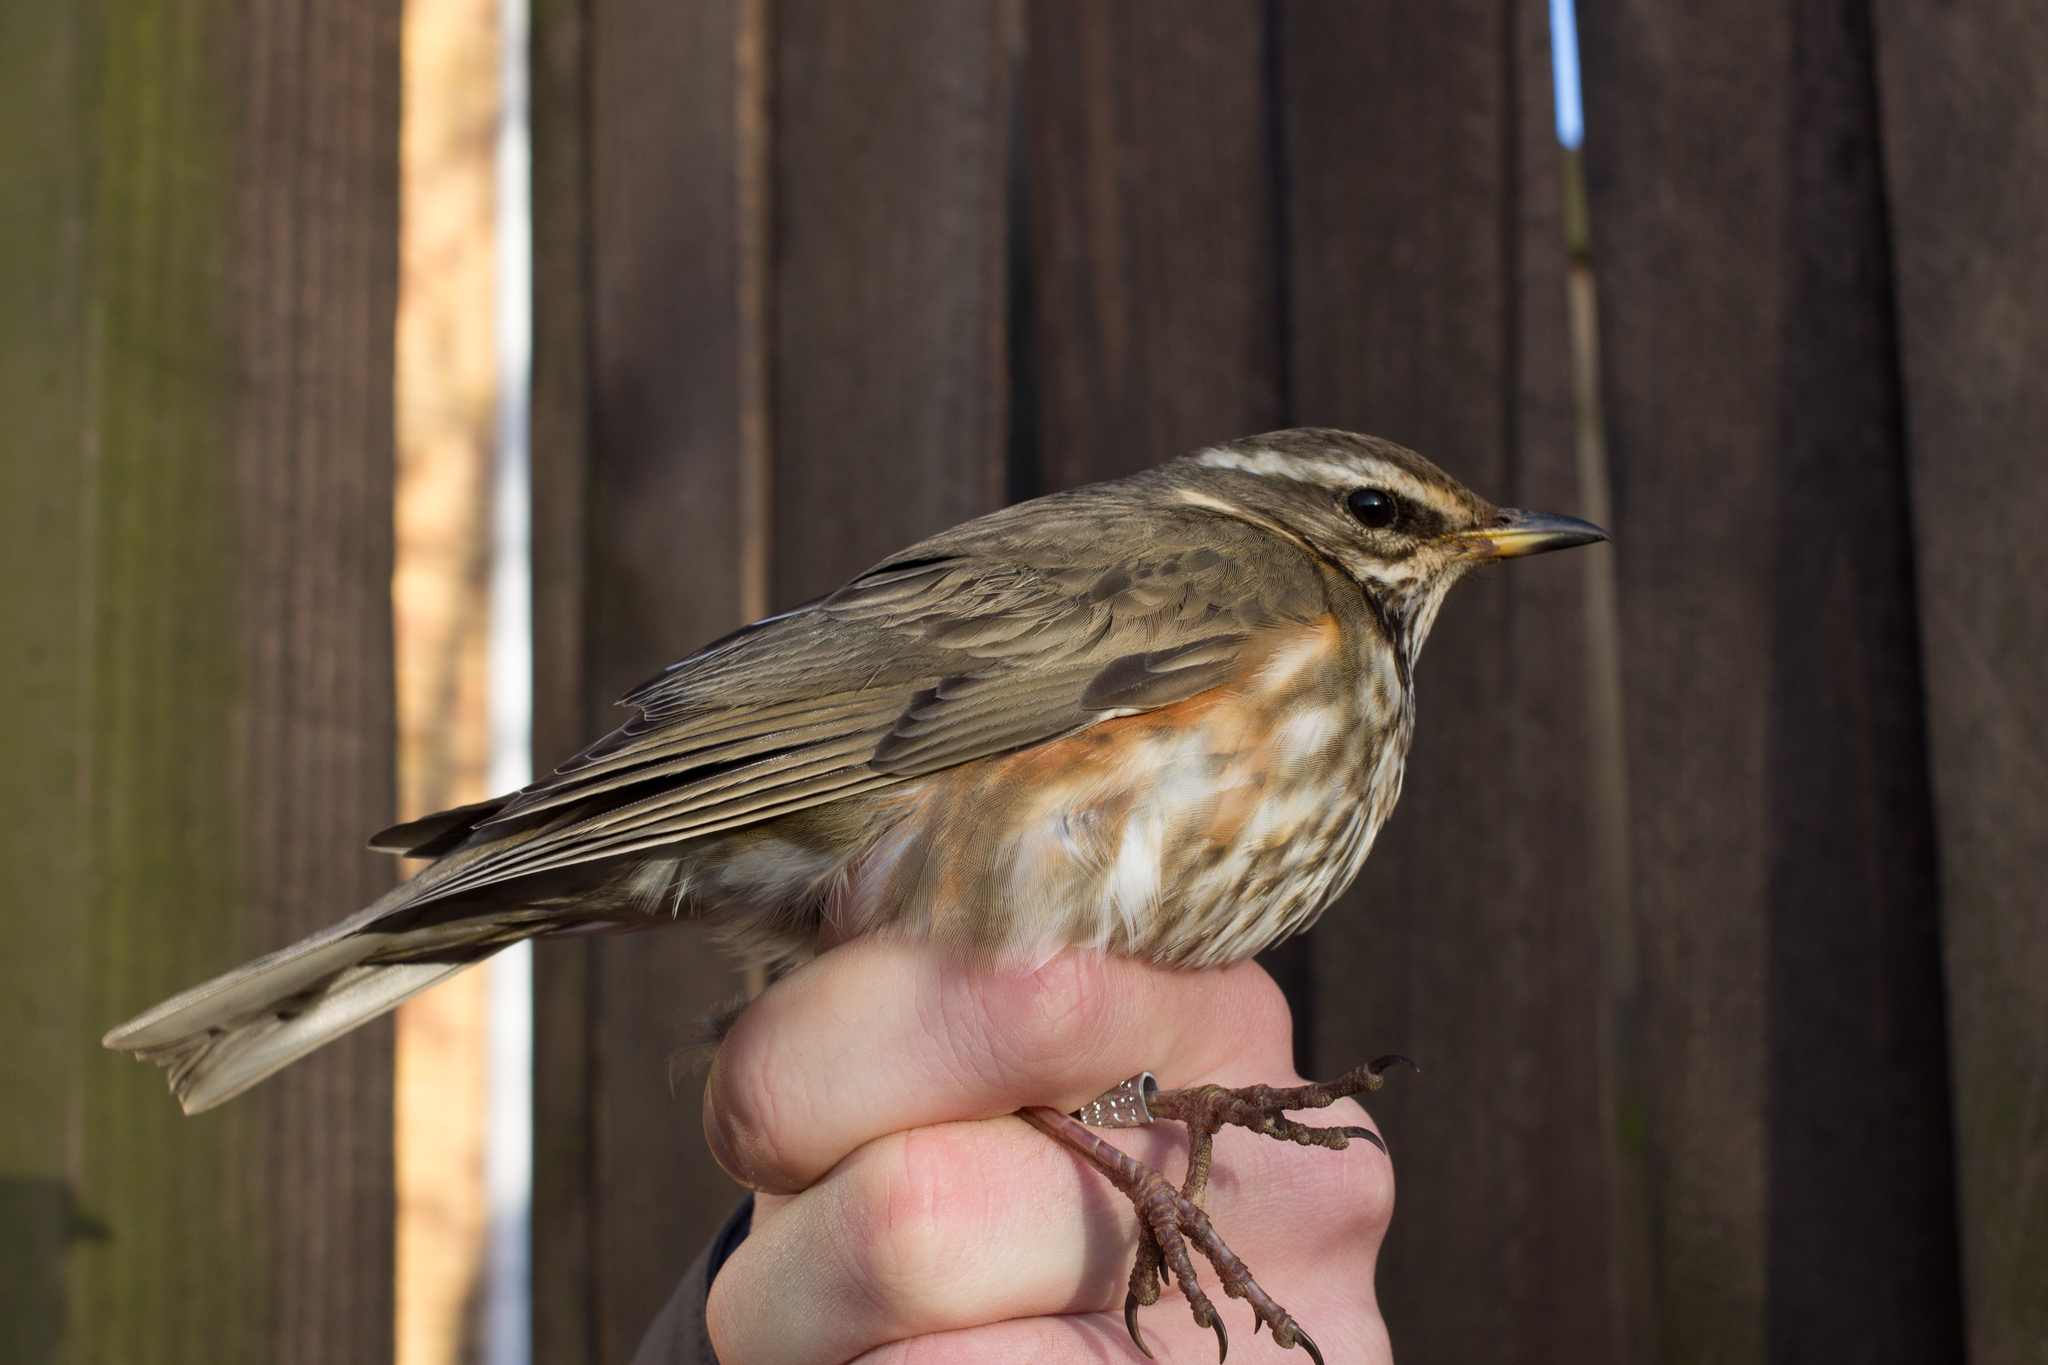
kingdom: Animalia
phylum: Chordata
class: Aves
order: Passeriformes
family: Turdidae
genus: Turdus
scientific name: Turdus iliacus
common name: Redwing
